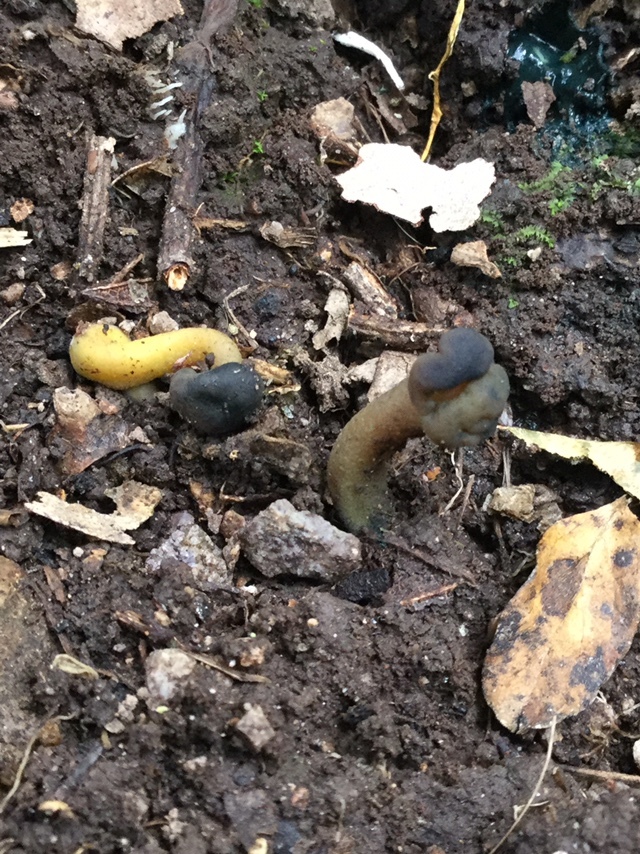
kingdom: Fungi
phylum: Ascomycota
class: Leotiomycetes
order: Leotiales
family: Leotiaceae
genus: Leotia
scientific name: Leotia lubrica
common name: Jellybaby
